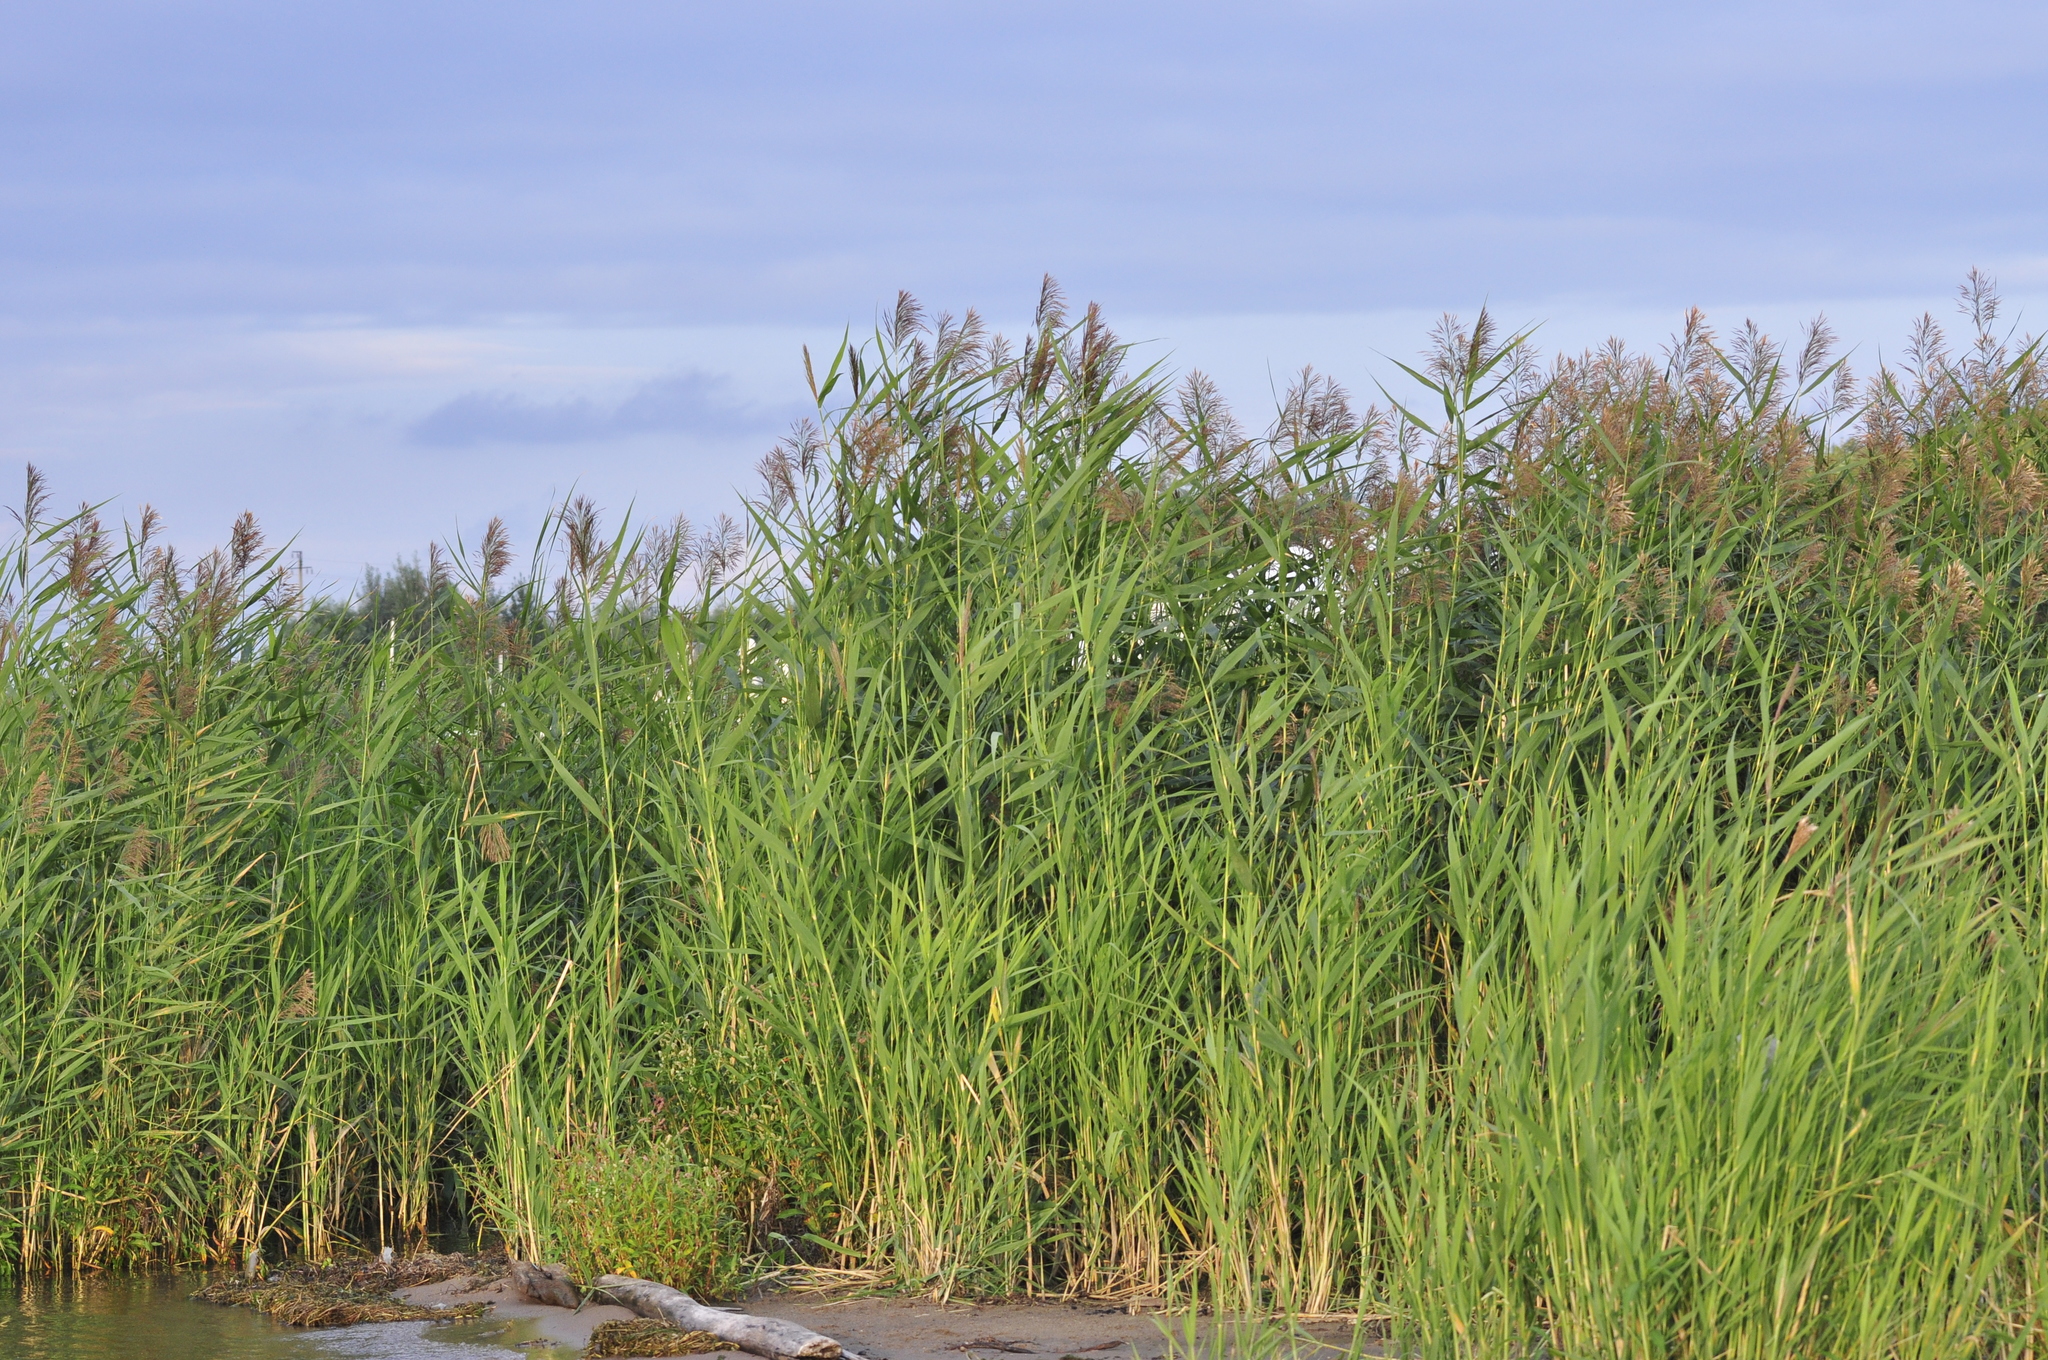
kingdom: Plantae
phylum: Tracheophyta
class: Liliopsida
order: Poales
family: Poaceae
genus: Phragmites
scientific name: Phragmites australis
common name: Common reed
